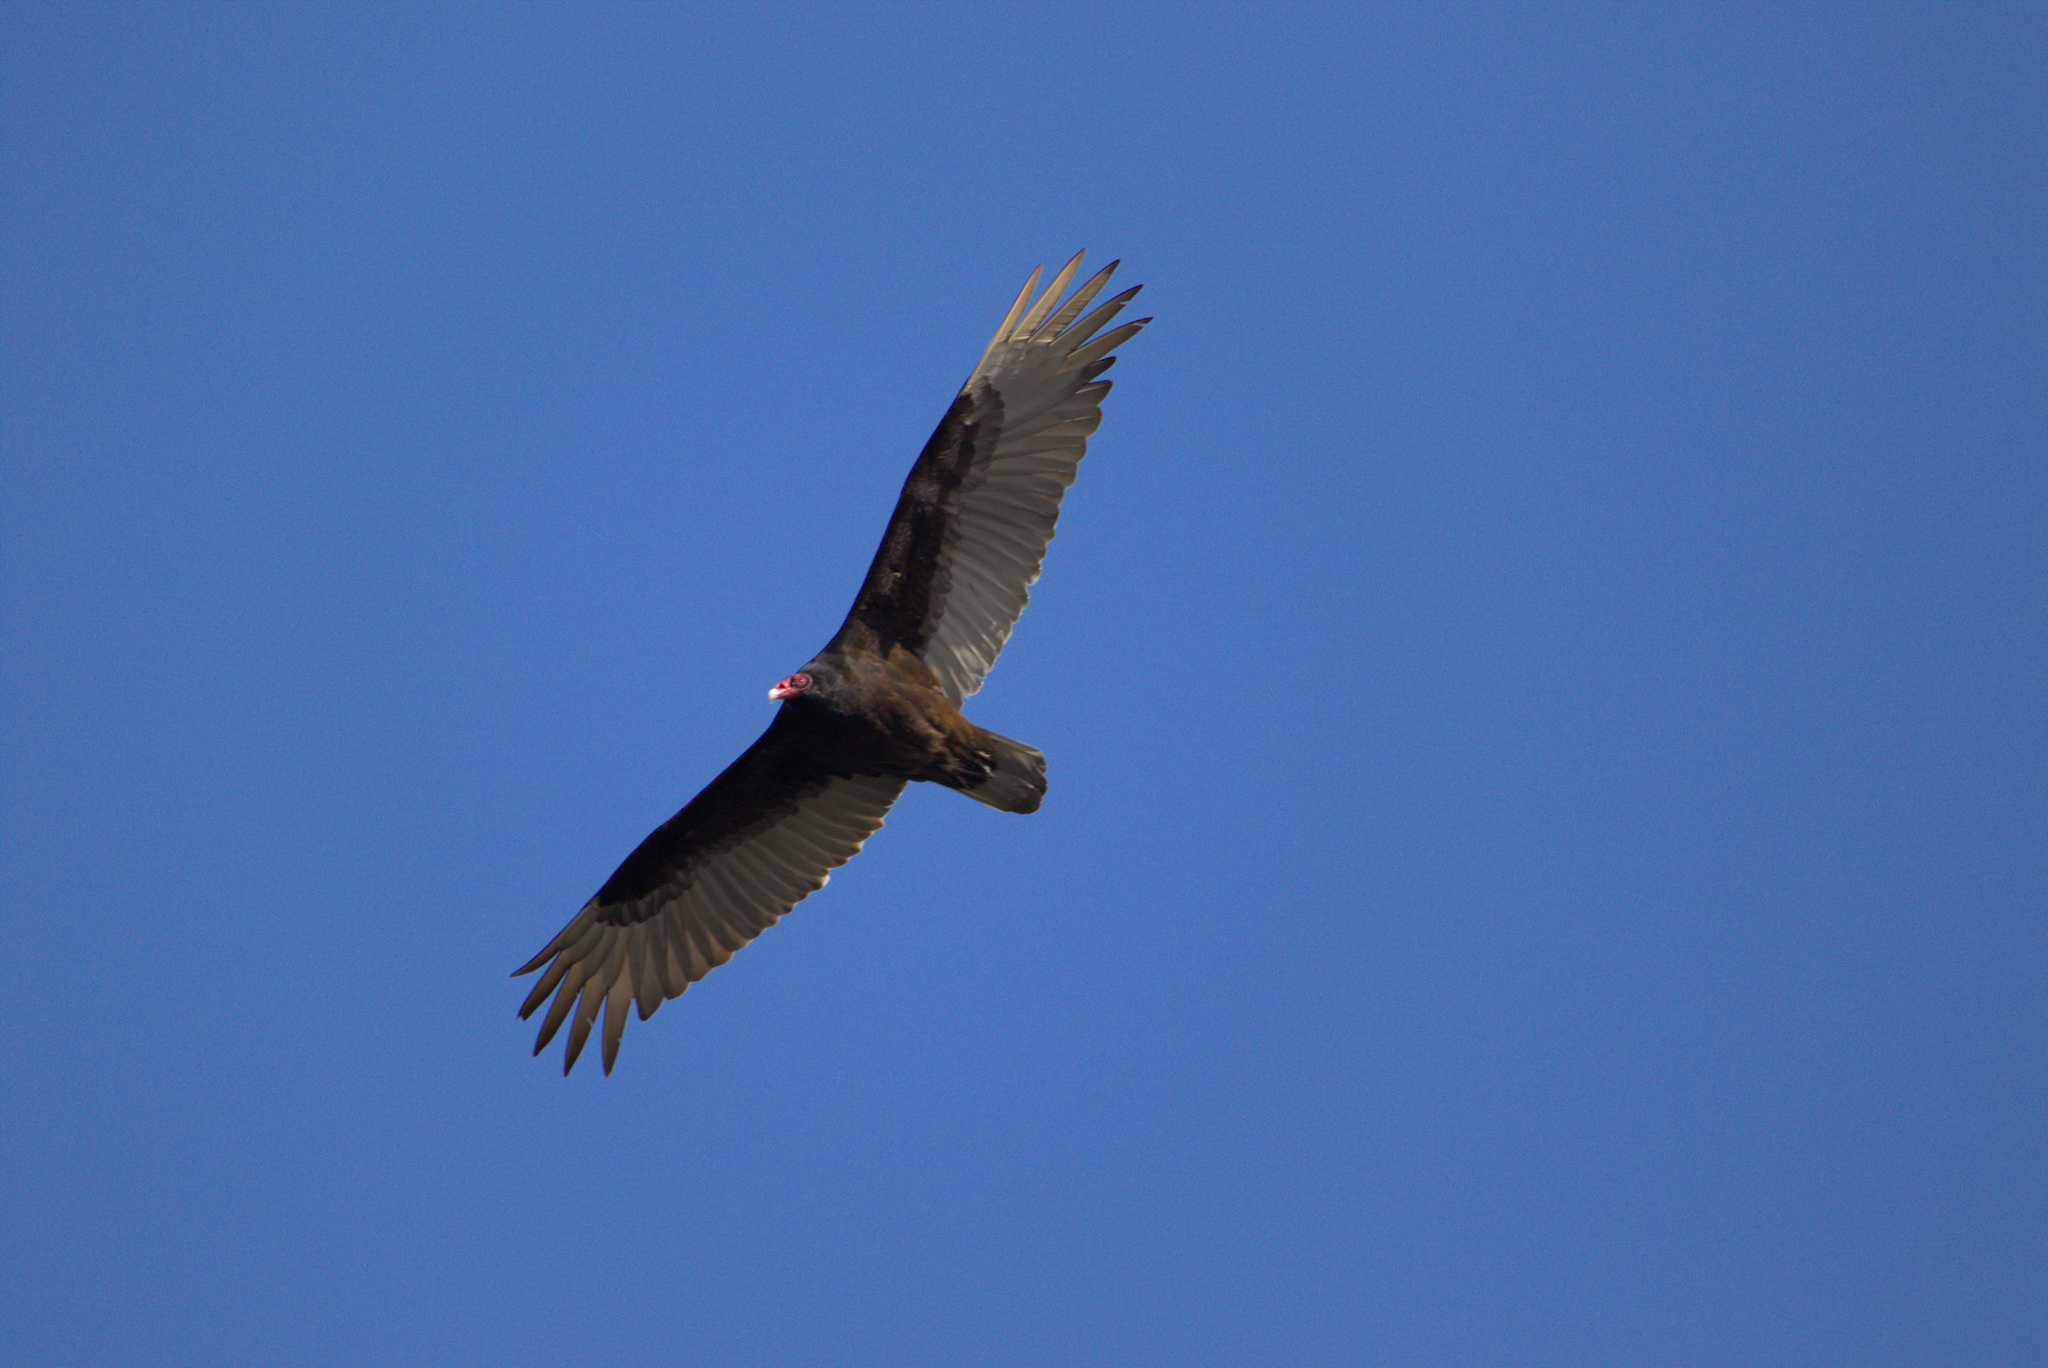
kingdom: Animalia
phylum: Chordata
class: Aves
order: Accipitriformes
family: Cathartidae
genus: Cathartes
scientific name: Cathartes aura
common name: Turkey vulture
